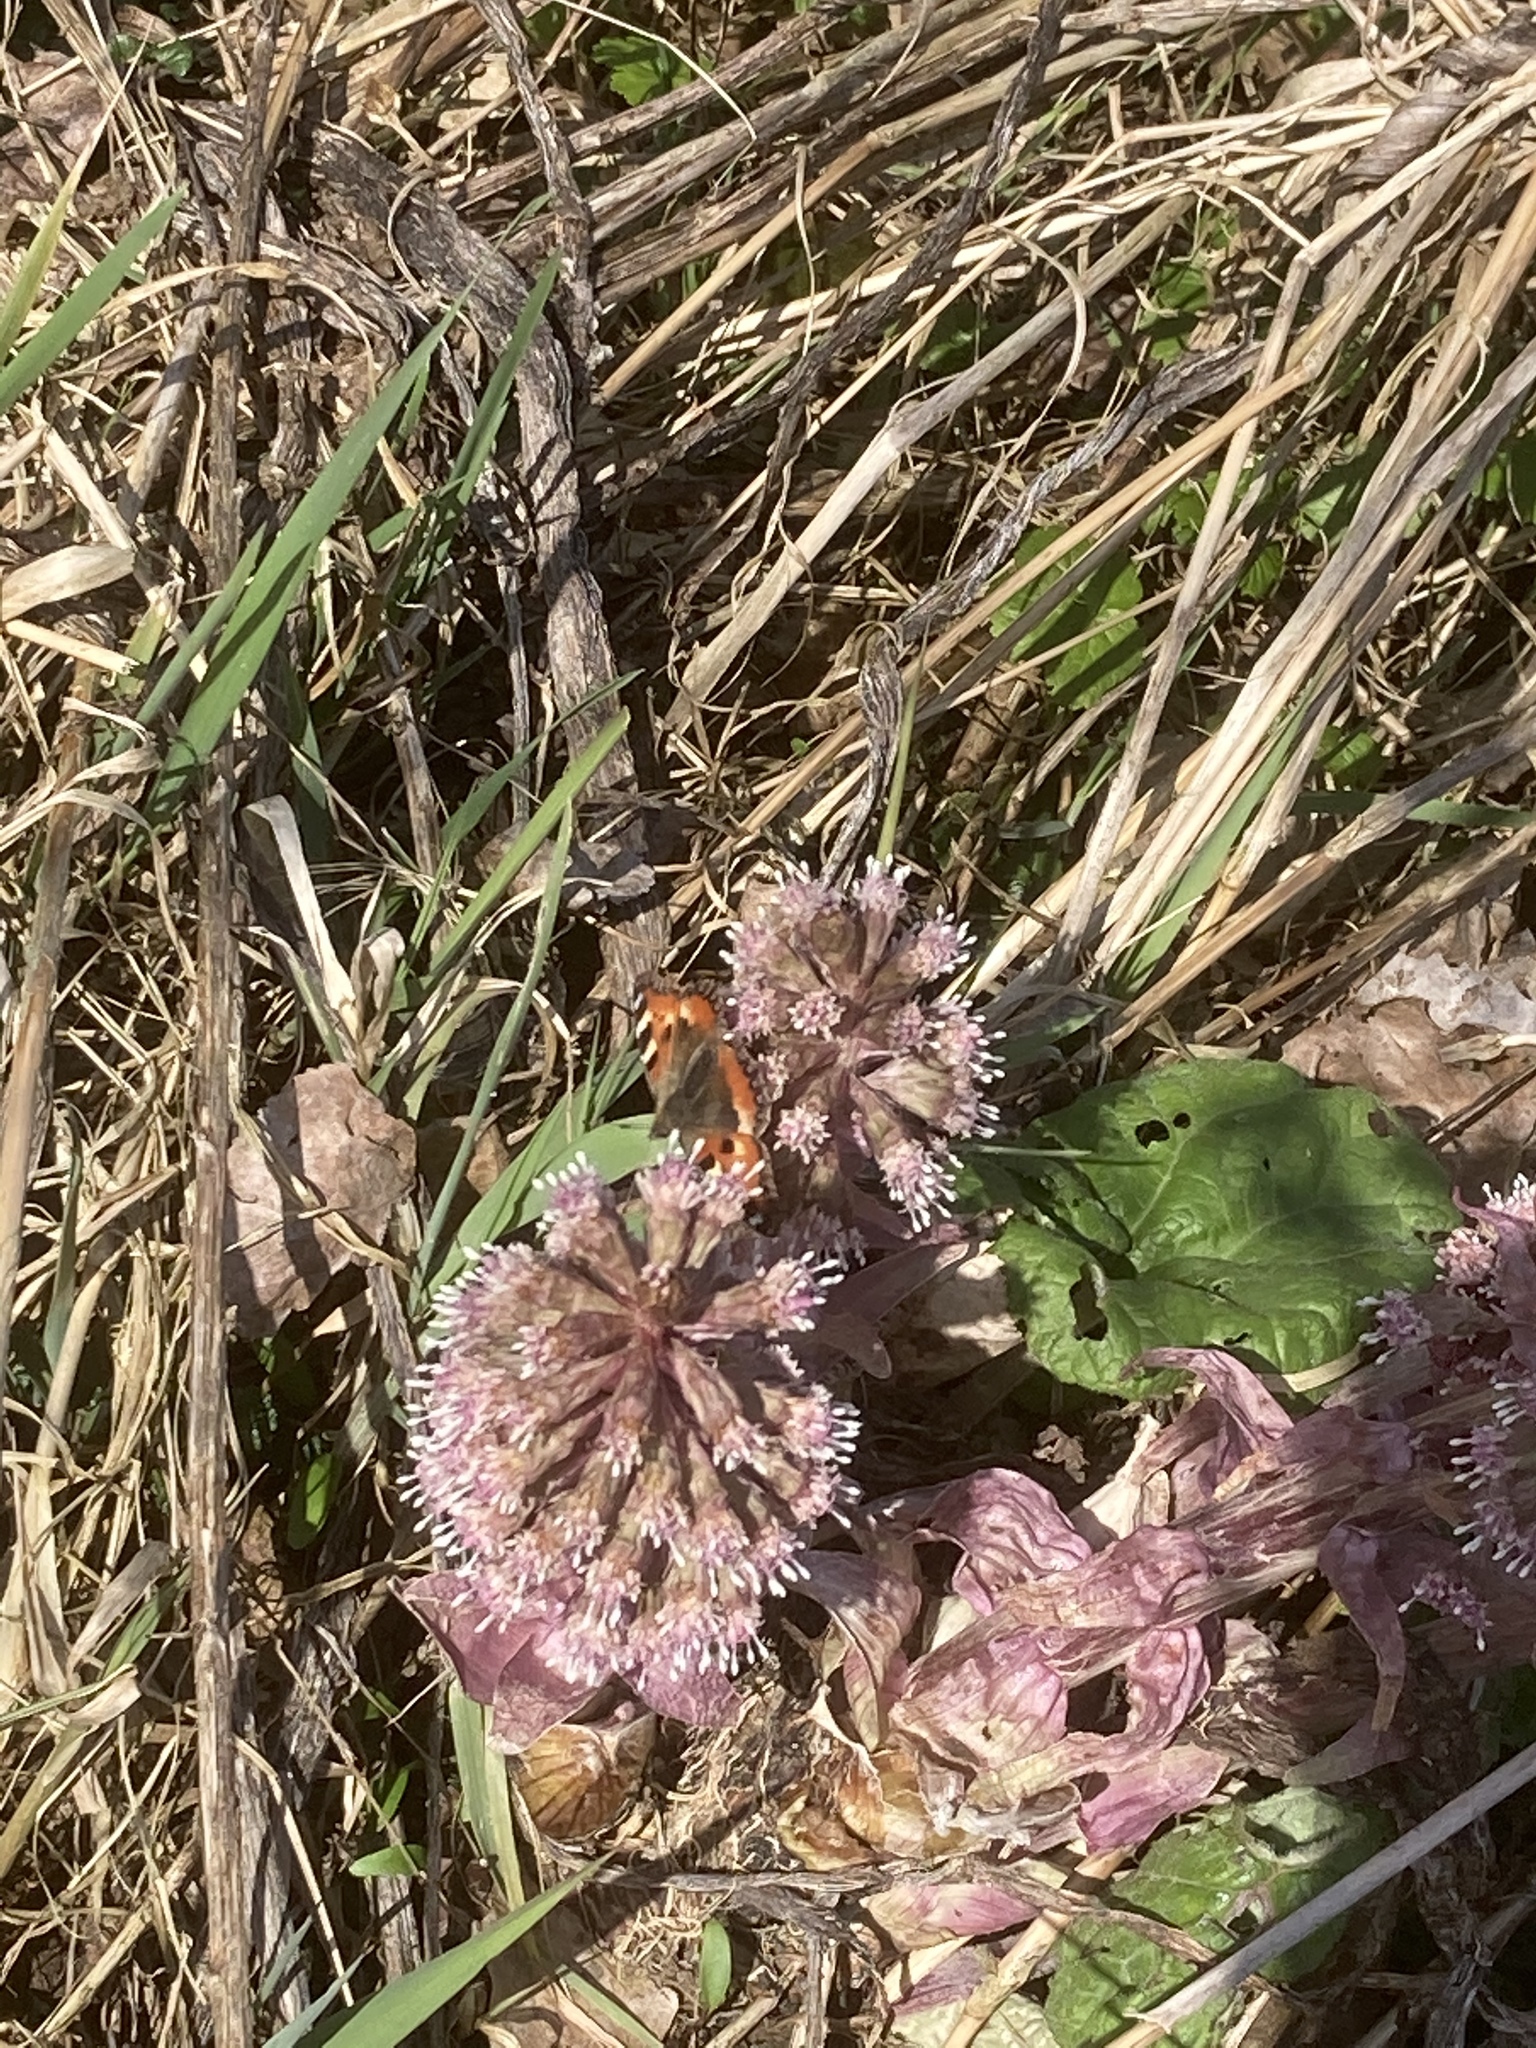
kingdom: Plantae
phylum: Tracheophyta
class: Magnoliopsida
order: Asterales
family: Asteraceae
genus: Petasites
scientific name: Petasites hybridus
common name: Butterbur
